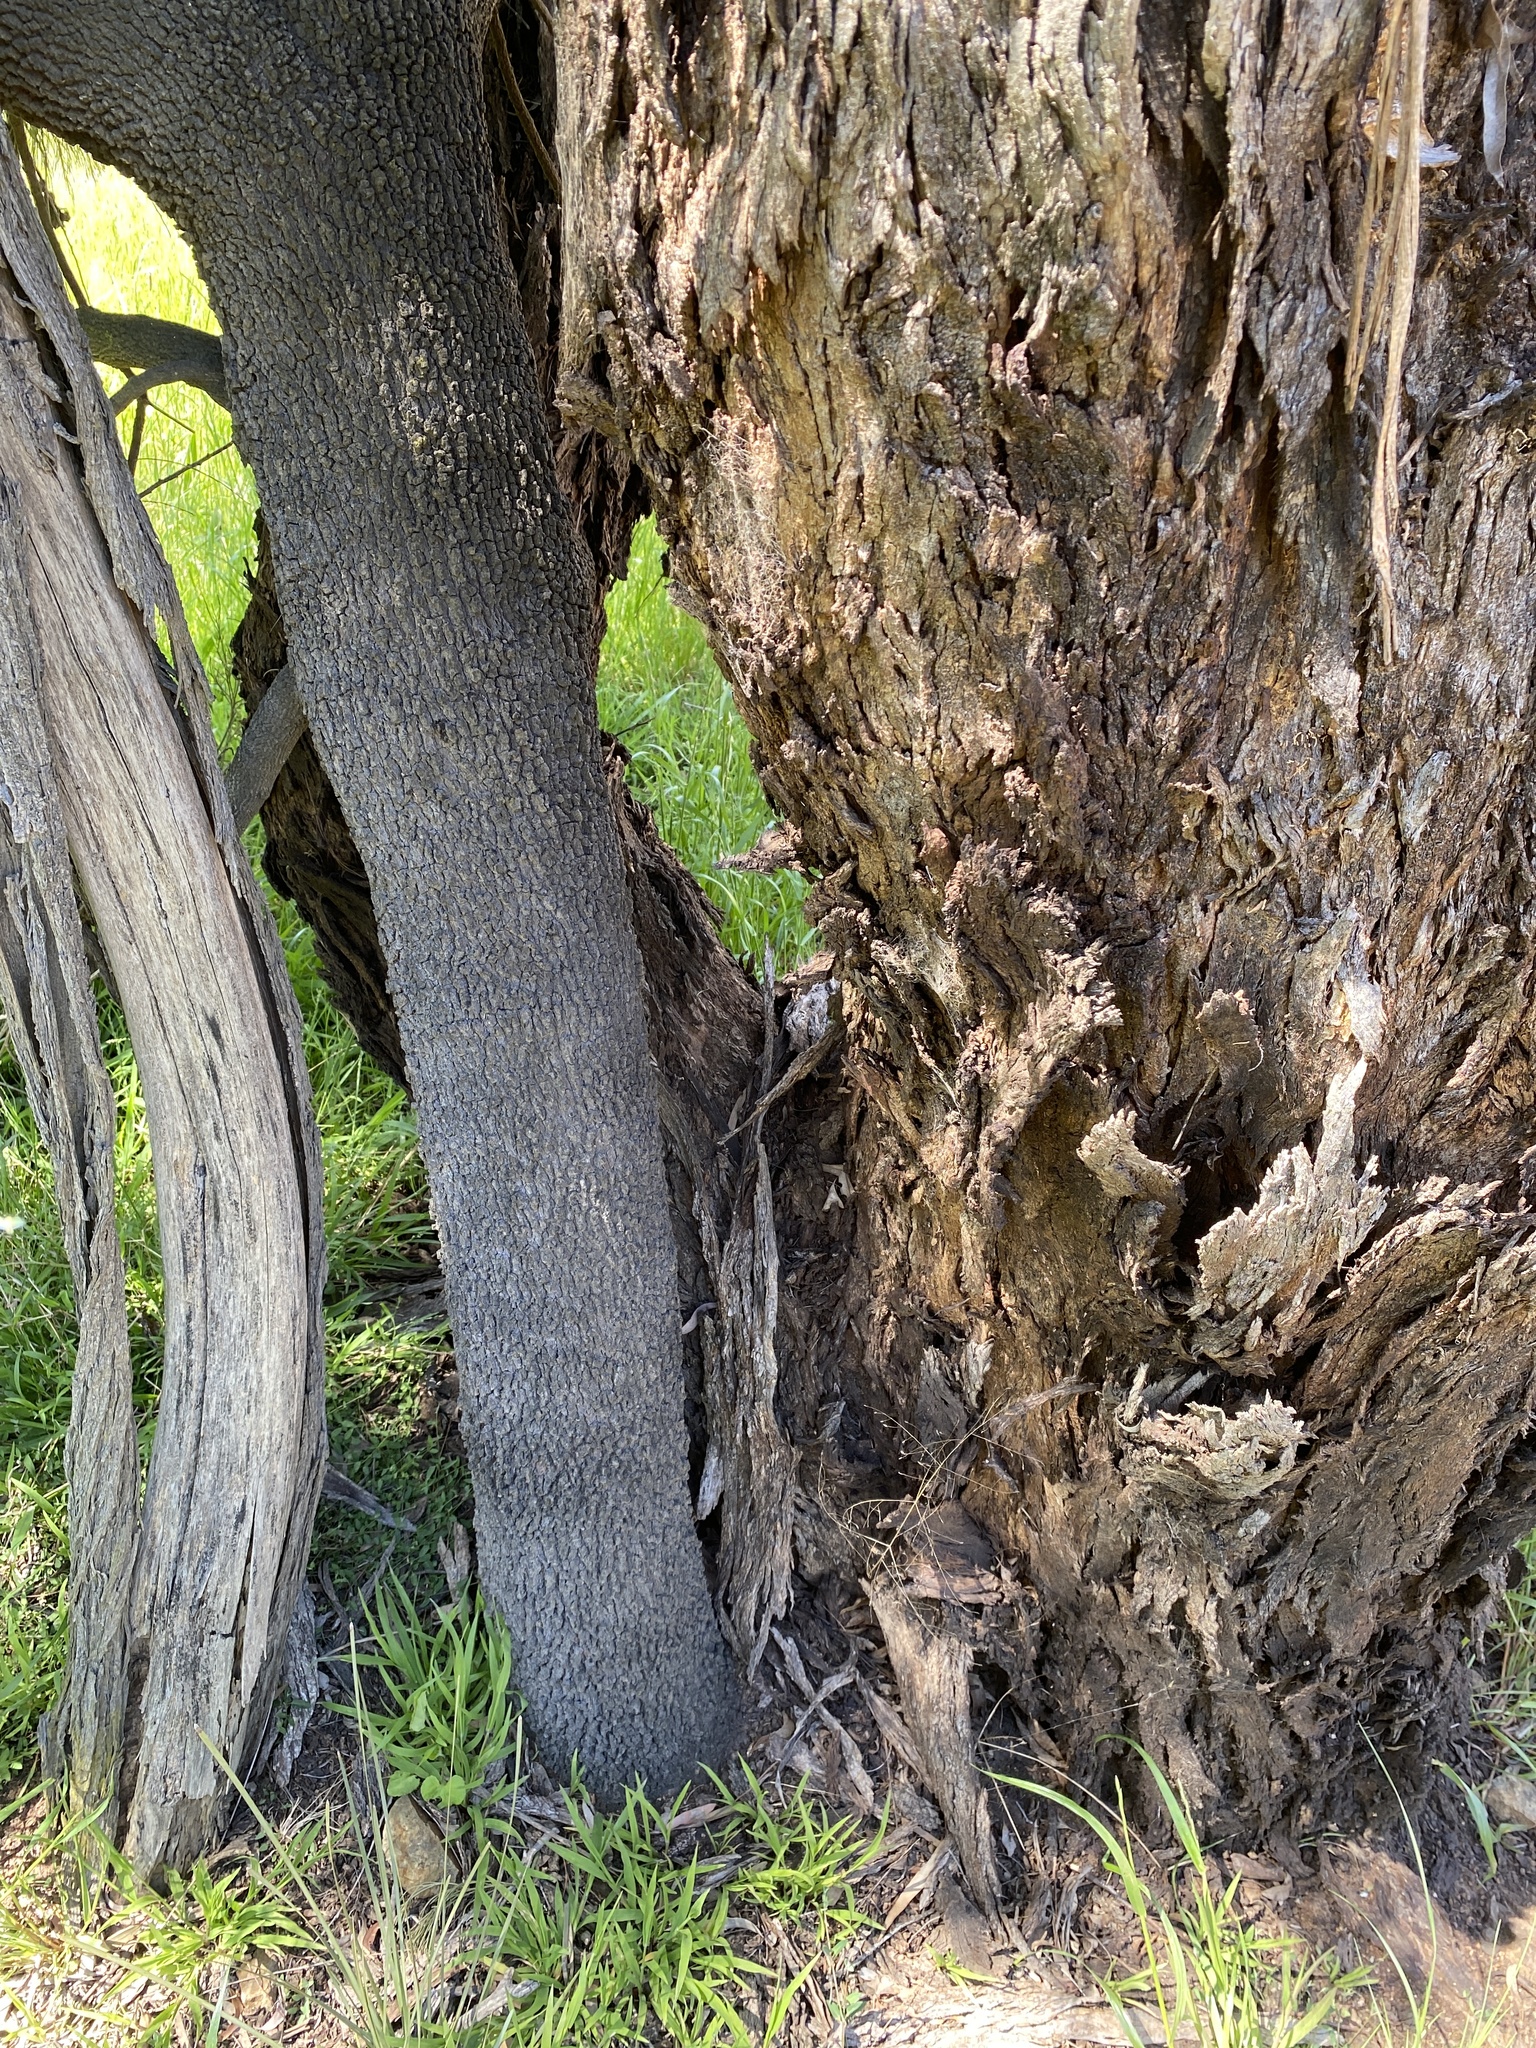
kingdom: Plantae
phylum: Tracheophyta
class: Magnoliopsida
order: Santalales
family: Santalaceae
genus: Exocarpos
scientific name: Exocarpos cupressiformis
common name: Cherry ballart
